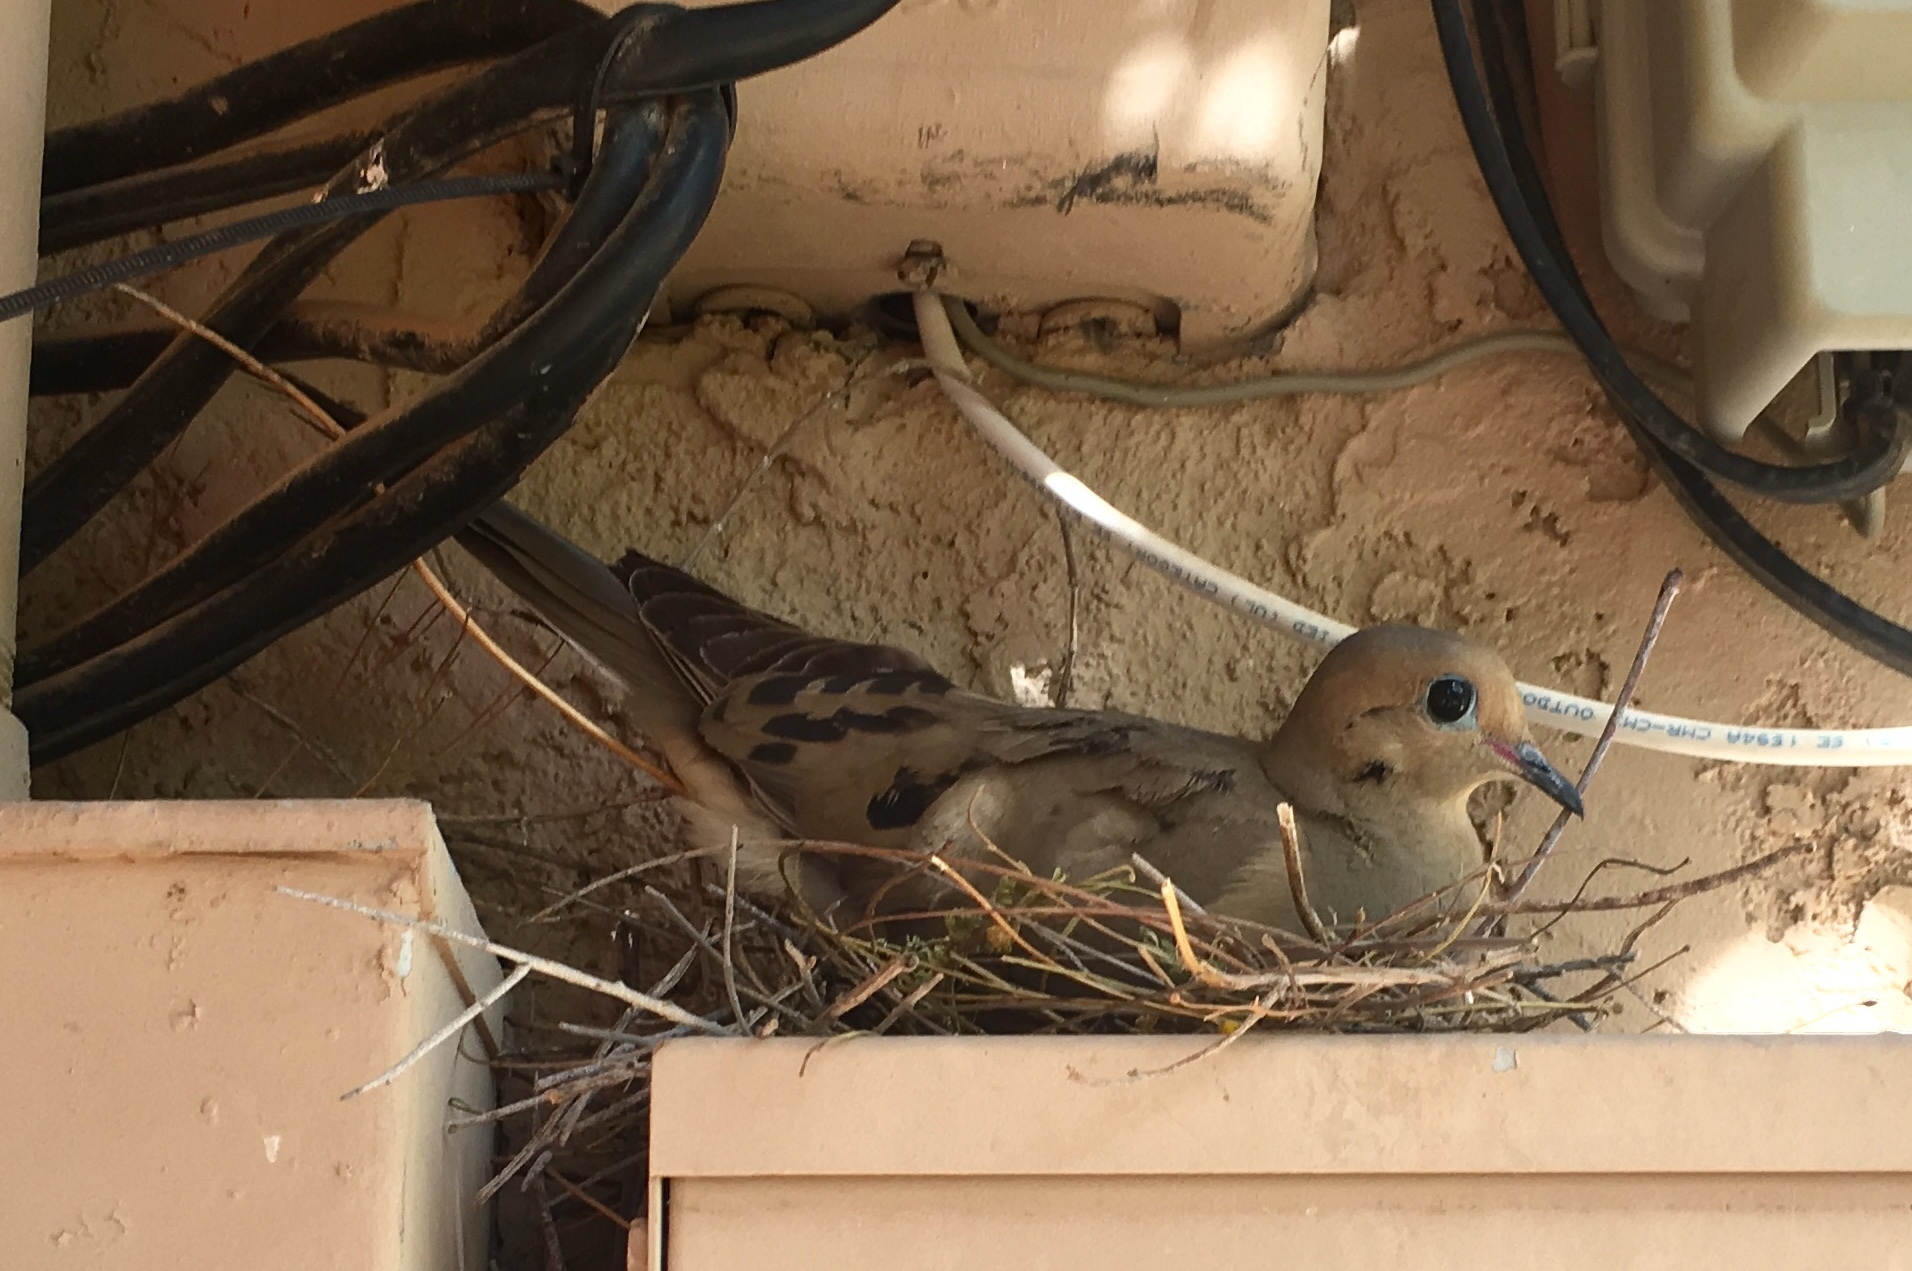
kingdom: Animalia
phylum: Chordata
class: Aves
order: Columbiformes
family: Columbidae
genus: Zenaida
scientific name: Zenaida macroura
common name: Mourning dove
